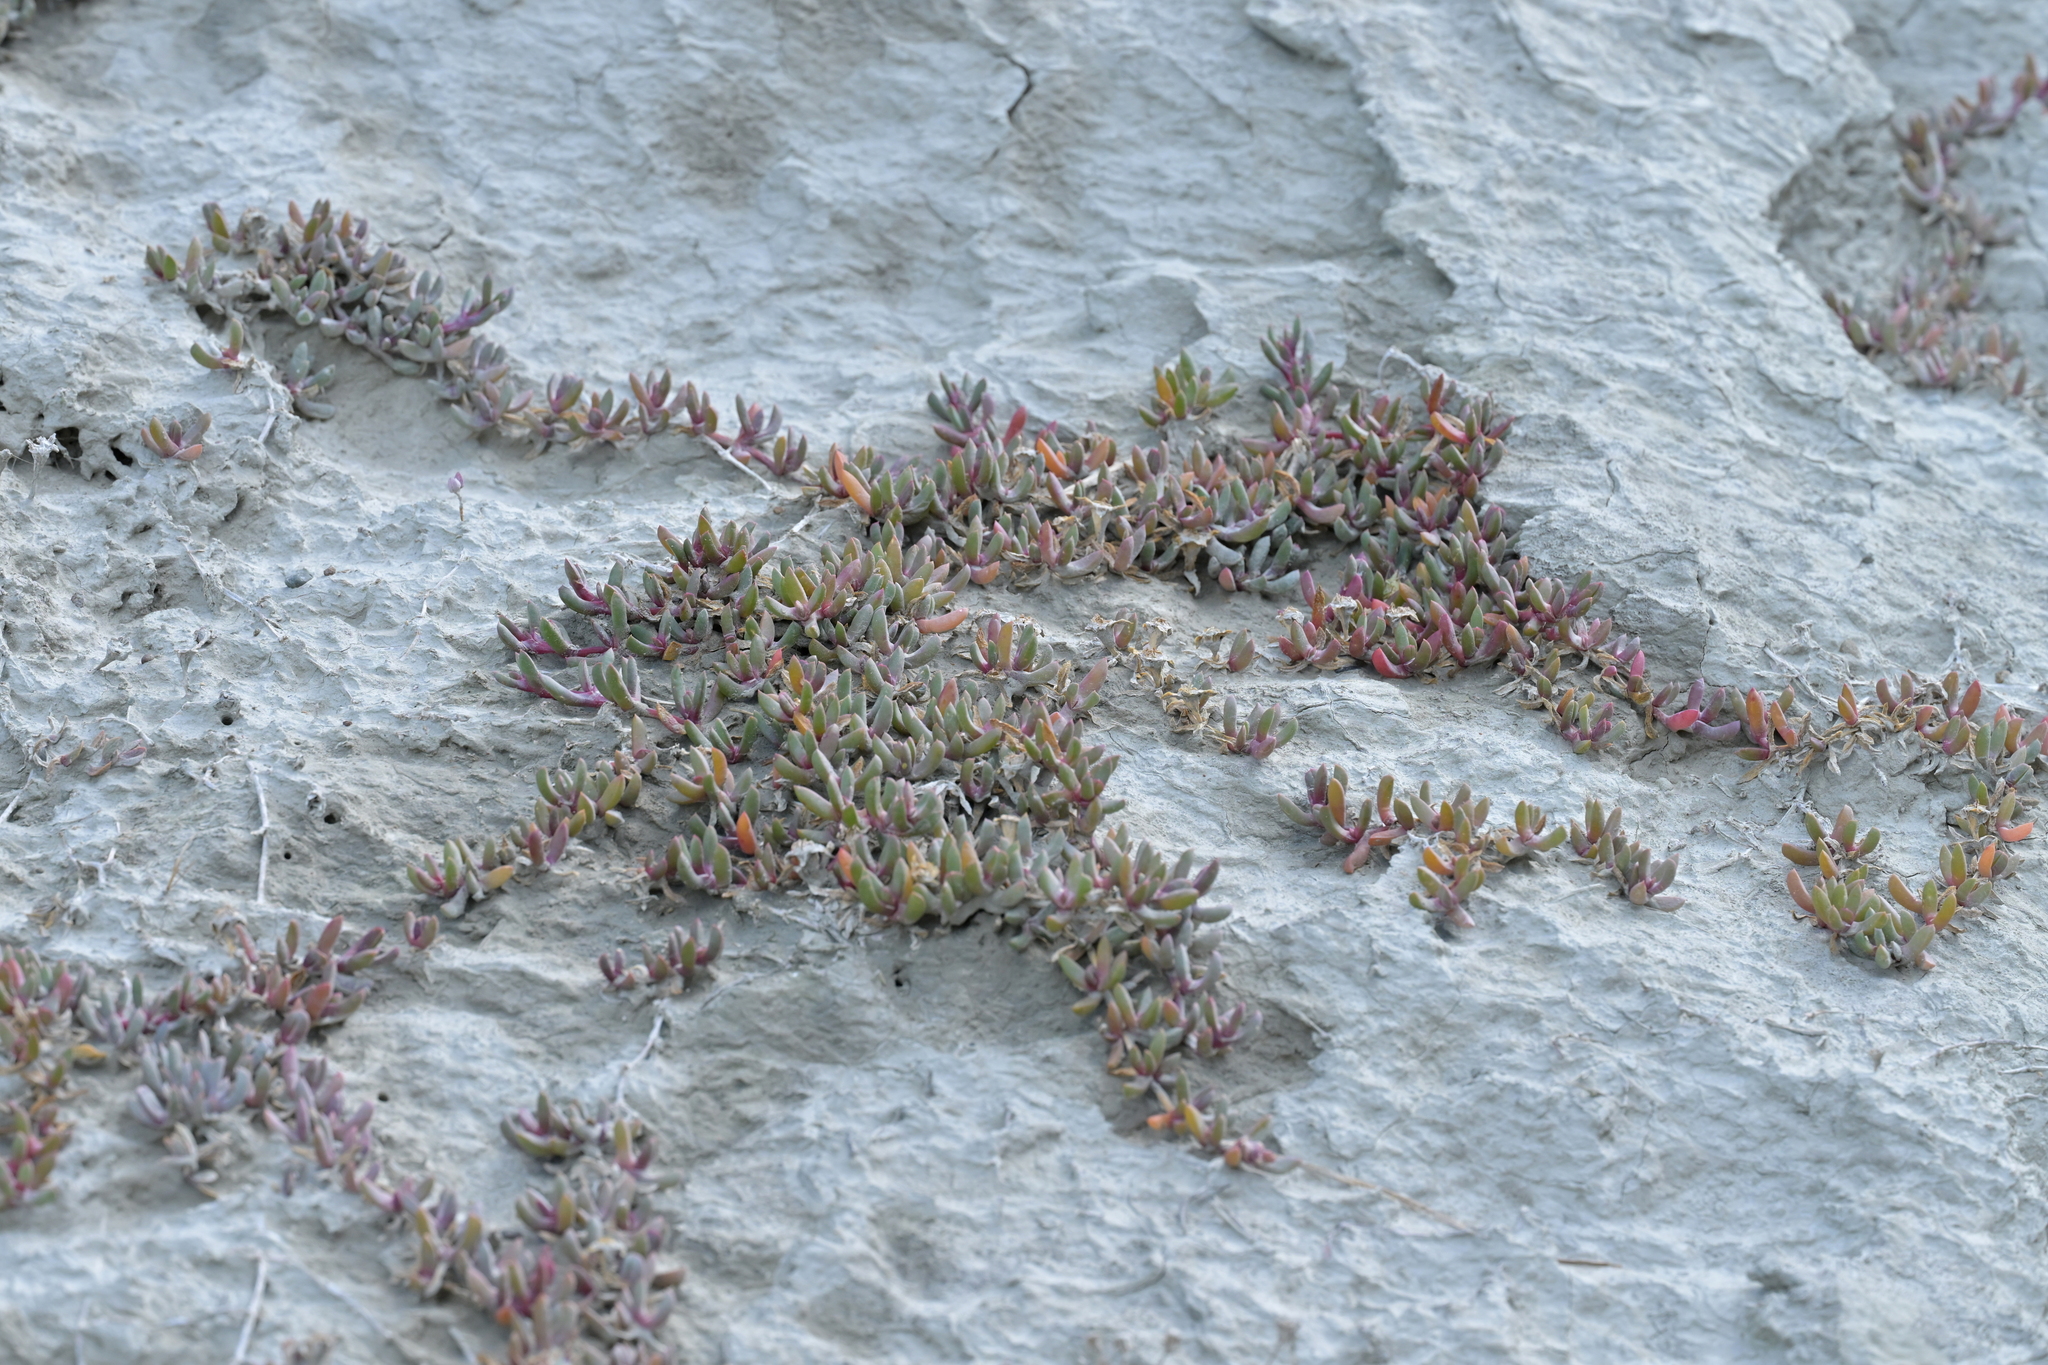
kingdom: Plantae
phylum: Tracheophyta
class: Magnoliopsida
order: Caryophyllales
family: Aizoaceae
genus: Disphyma
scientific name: Disphyma australe
